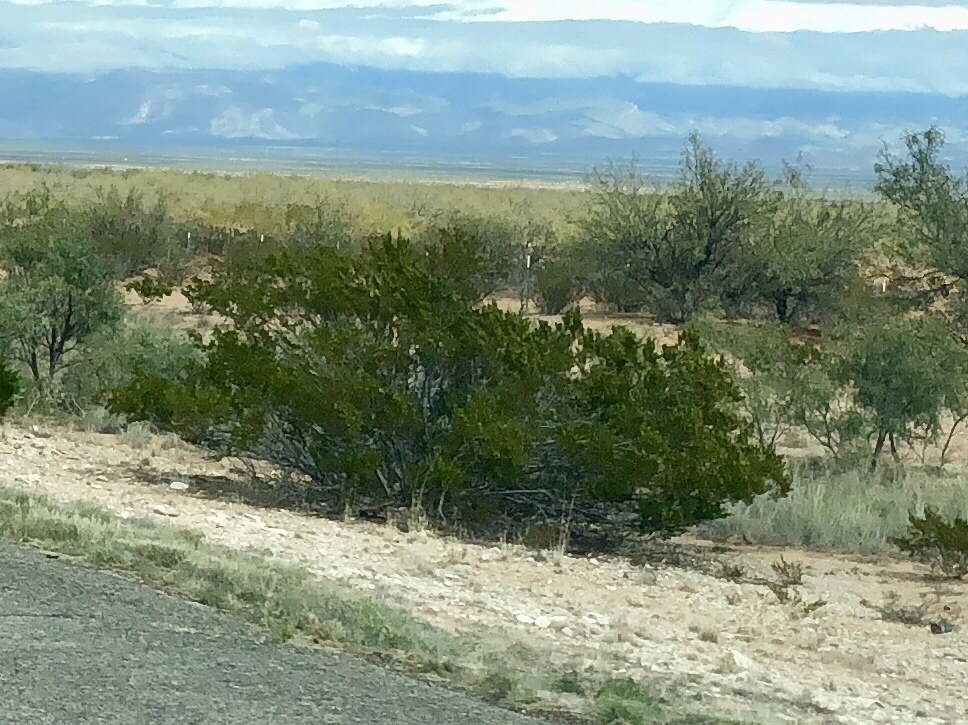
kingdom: Plantae
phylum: Tracheophyta
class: Magnoliopsida
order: Zygophyllales
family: Zygophyllaceae
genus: Larrea
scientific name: Larrea tridentata
